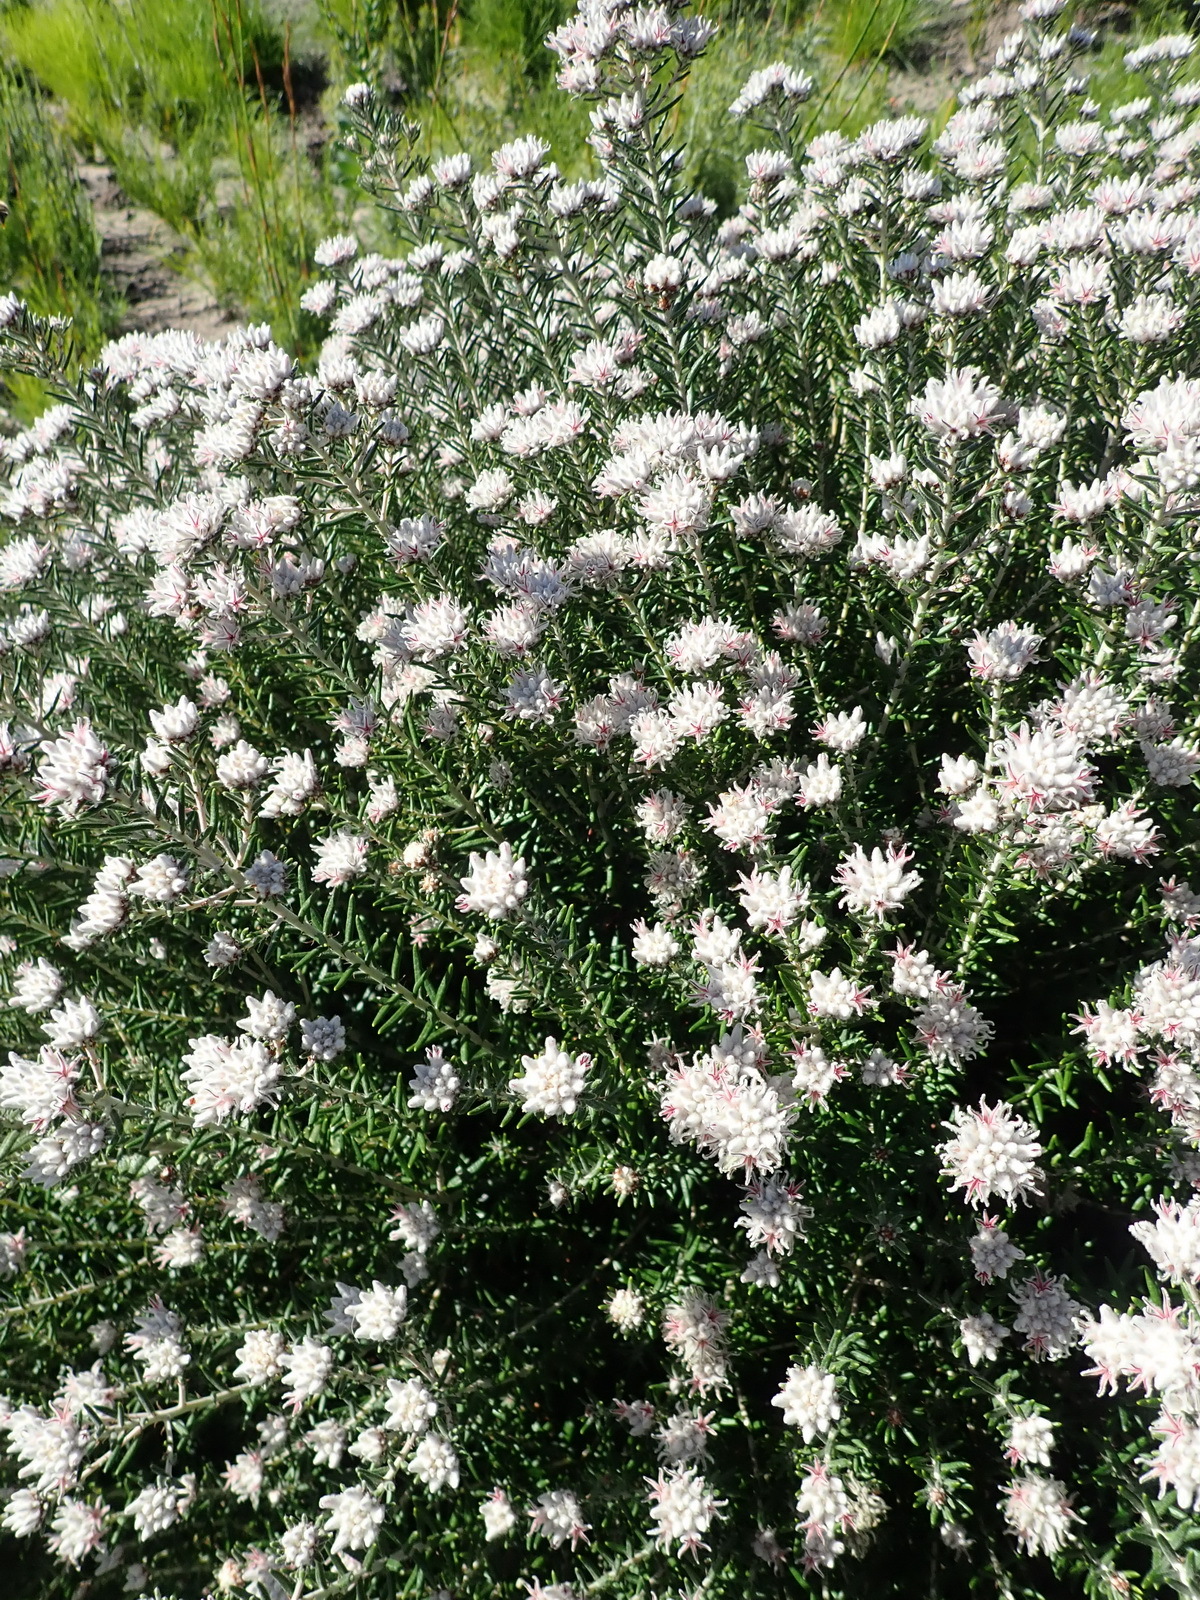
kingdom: Plantae
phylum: Tracheophyta
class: Magnoliopsida
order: Rosales
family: Rhamnaceae
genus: Trichocephalus
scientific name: Trichocephalus stipularis
